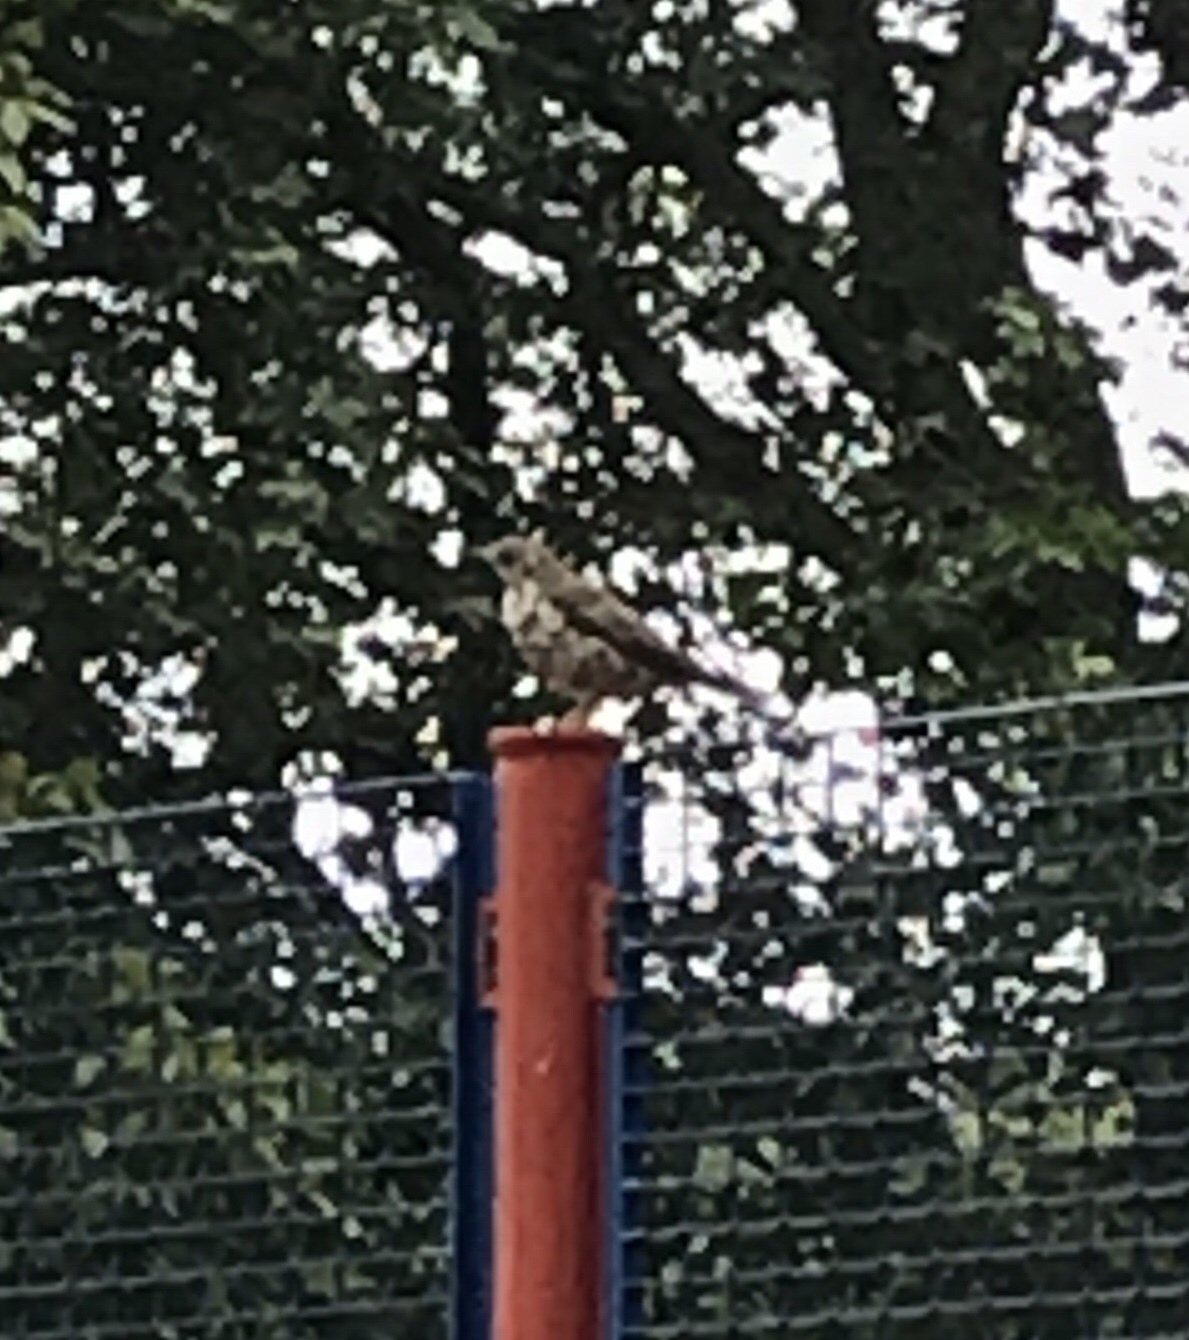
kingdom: Animalia
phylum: Chordata
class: Aves
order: Passeriformes
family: Turdidae
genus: Turdus
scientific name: Turdus viscivorus
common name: Mistle thrush
